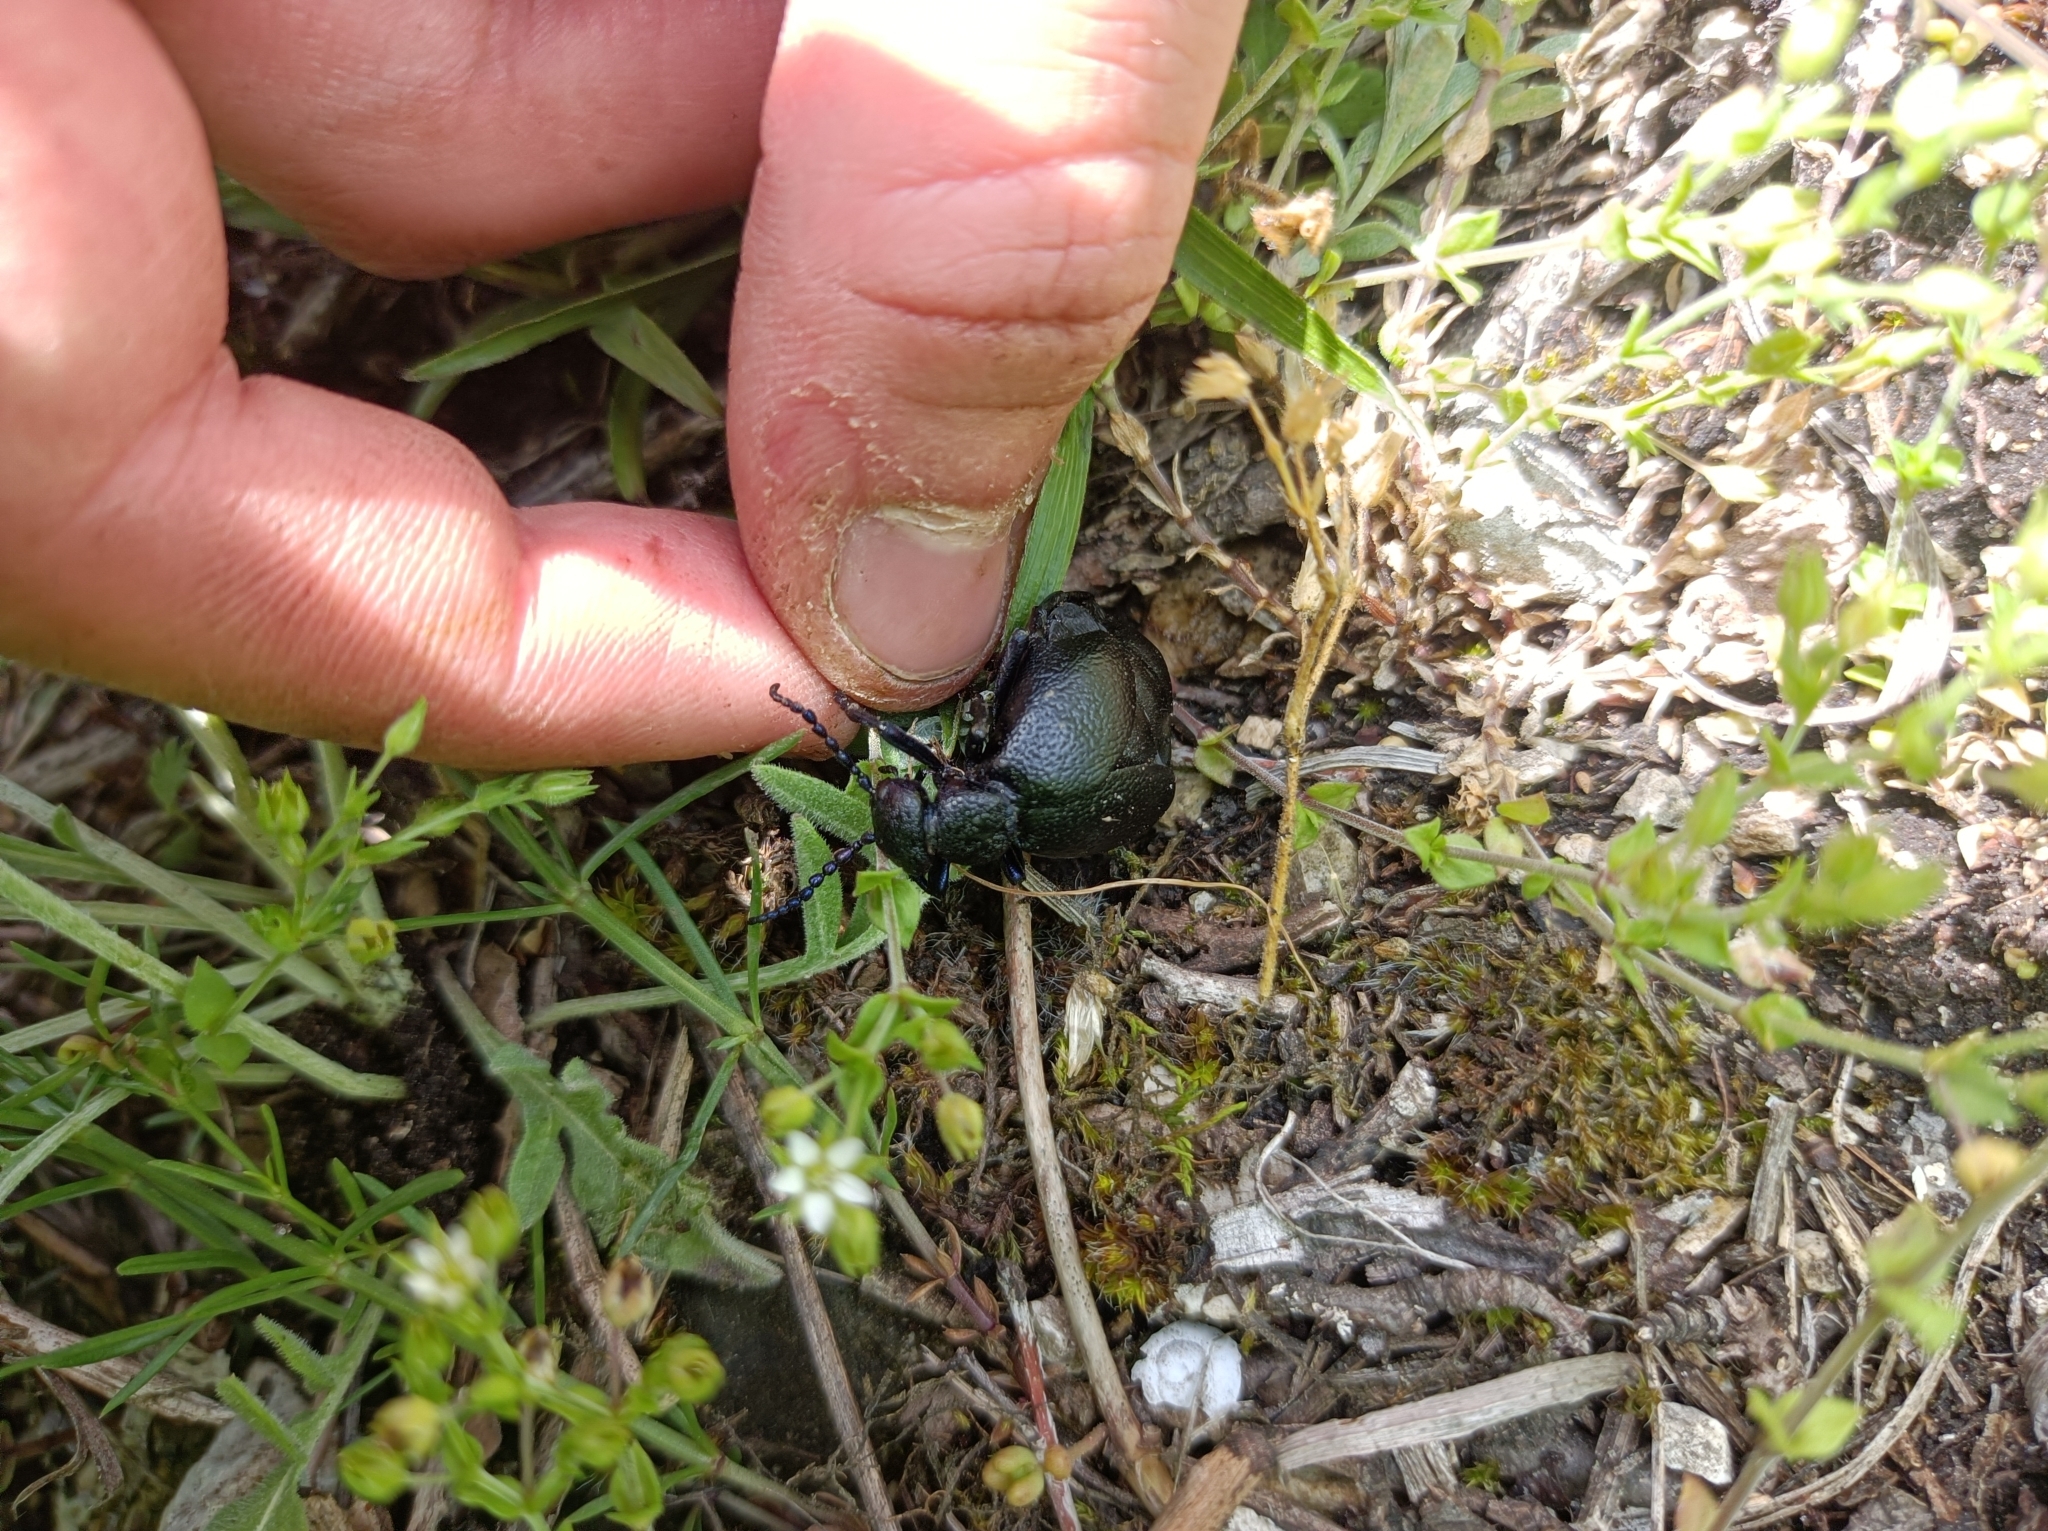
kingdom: Animalia
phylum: Arthropoda
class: Insecta
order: Coleoptera
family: Meloidae
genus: Meloe
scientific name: Meloe proscarabaeus
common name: Black oil-beetle
